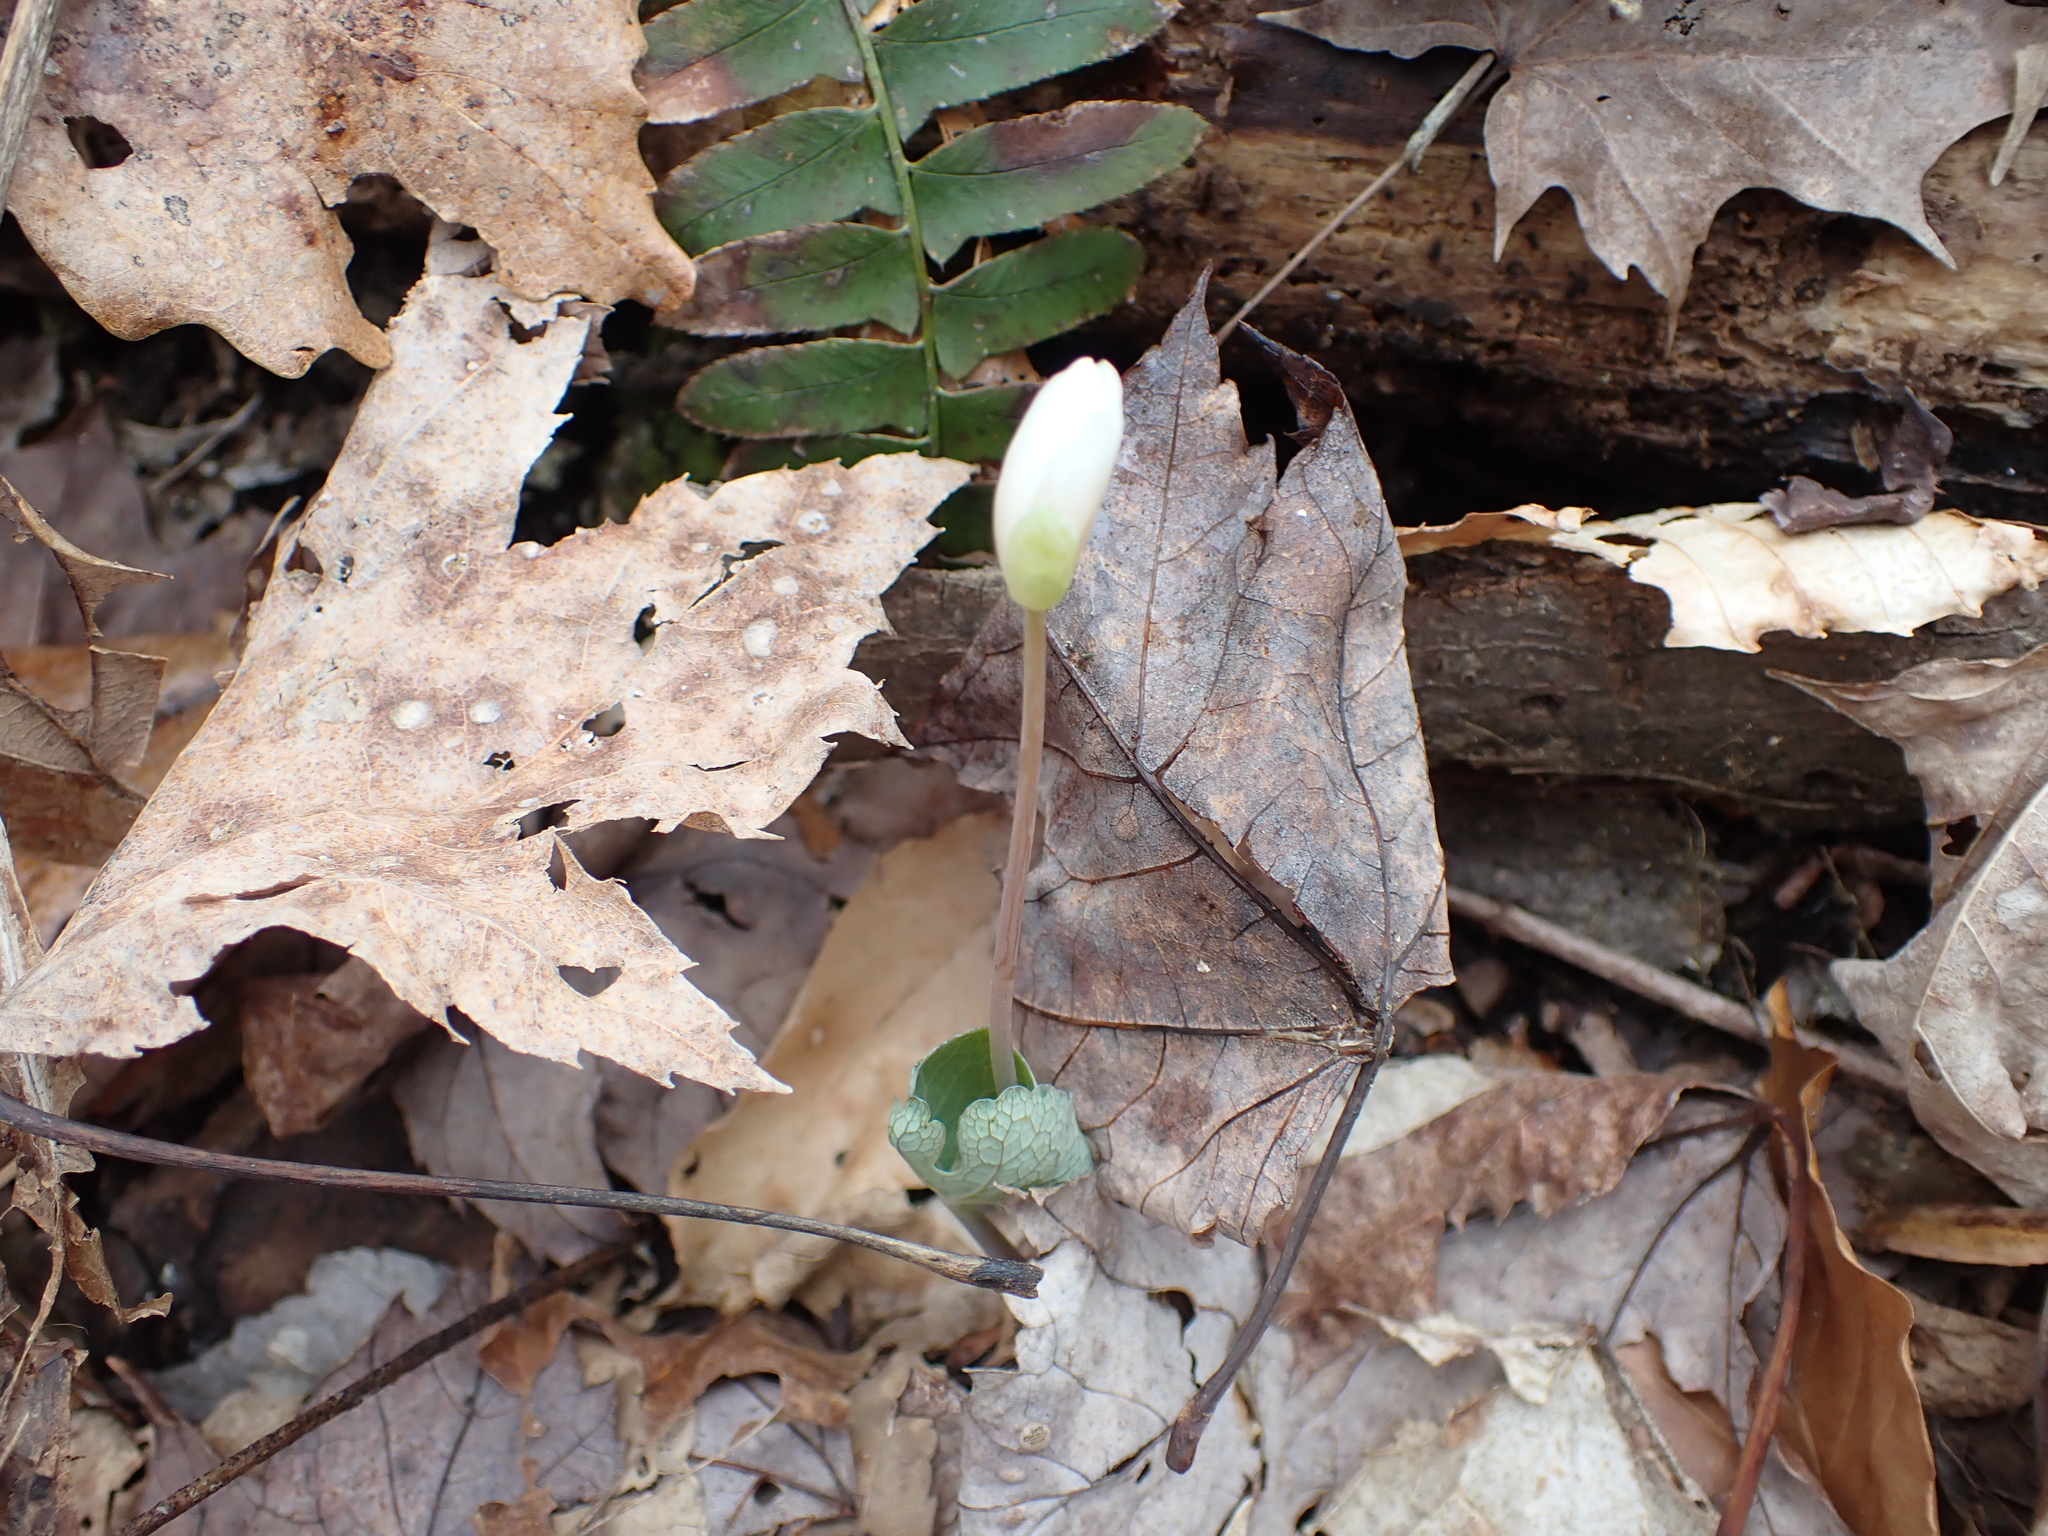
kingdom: Plantae
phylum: Tracheophyta
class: Magnoliopsida
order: Ranunculales
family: Papaveraceae
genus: Sanguinaria
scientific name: Sanguinaria canadensis
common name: Bloodroot
